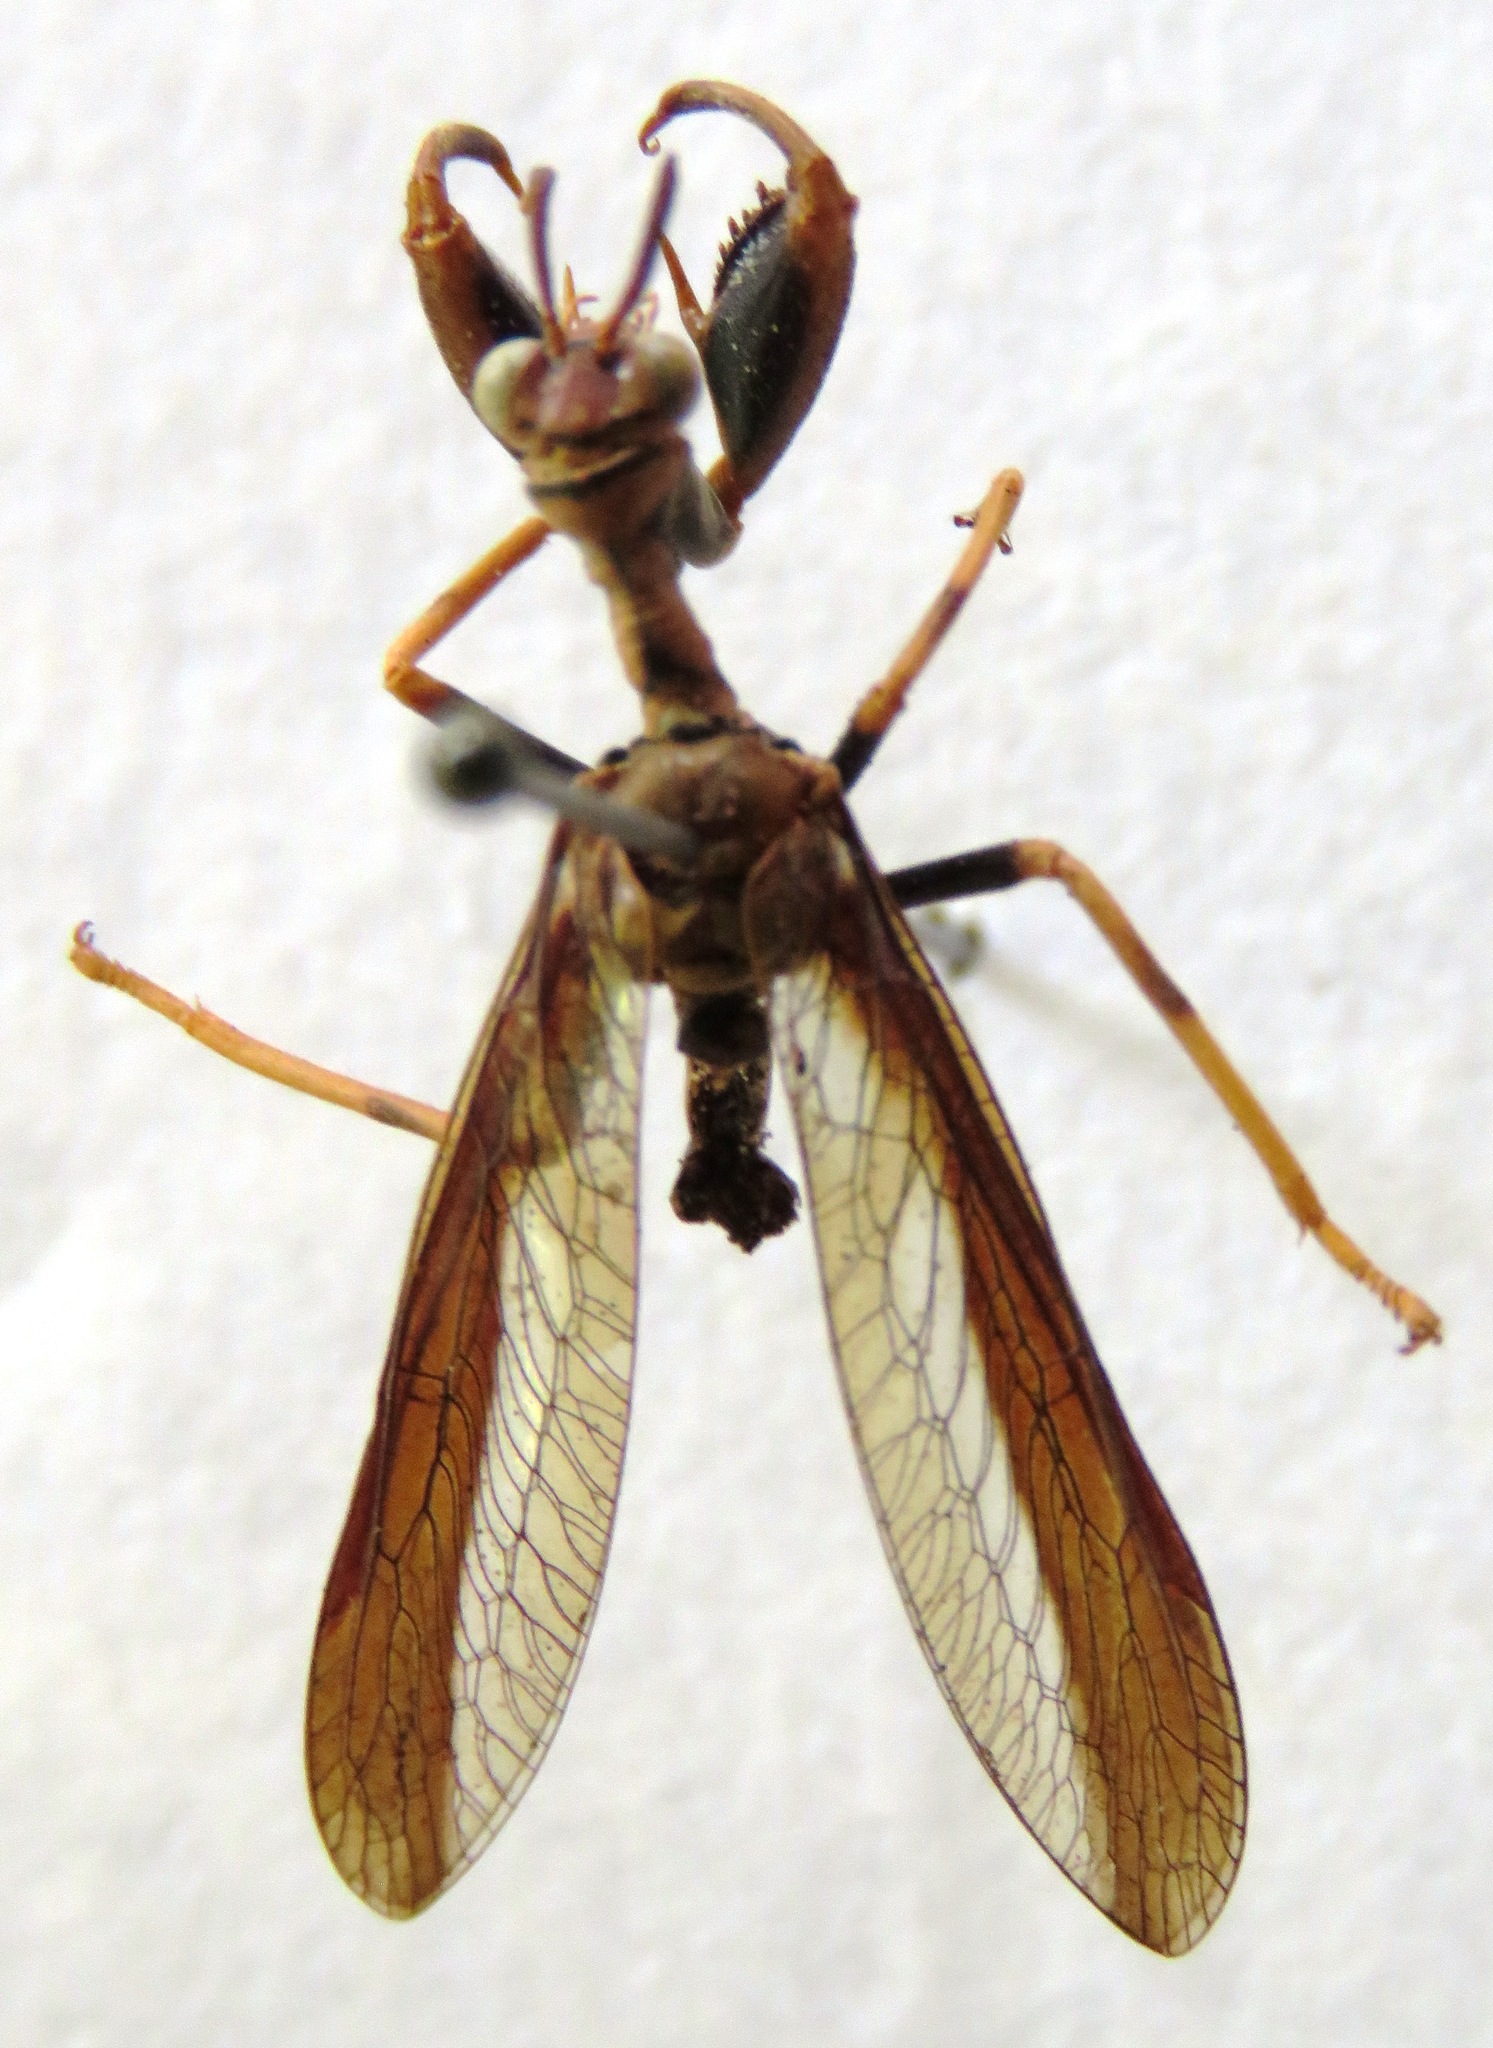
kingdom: Animalia
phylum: Arthropoda
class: Insecta
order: Neuroptera
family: Mantispidae
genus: Climaciella
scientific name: Climaciella brunnea
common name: Brown wasp mantidfly
